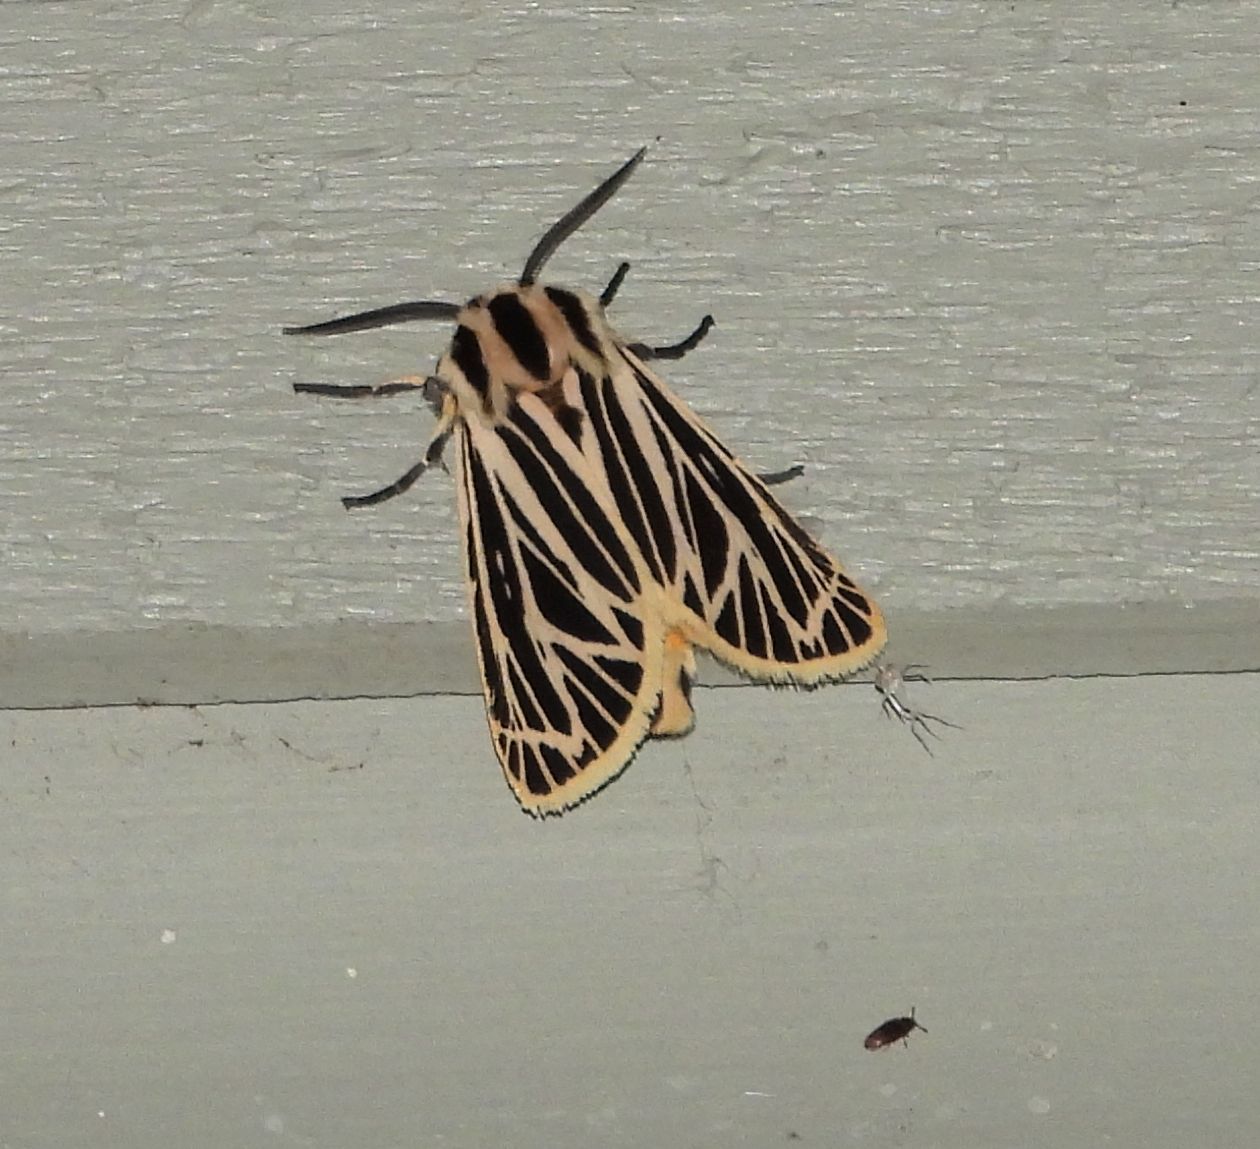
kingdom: Animalia
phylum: Arthropoda
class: Insecta
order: Lepidoptera
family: Erebidae
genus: Grammia
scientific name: Grammia virguncula
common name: Little tiger moth
